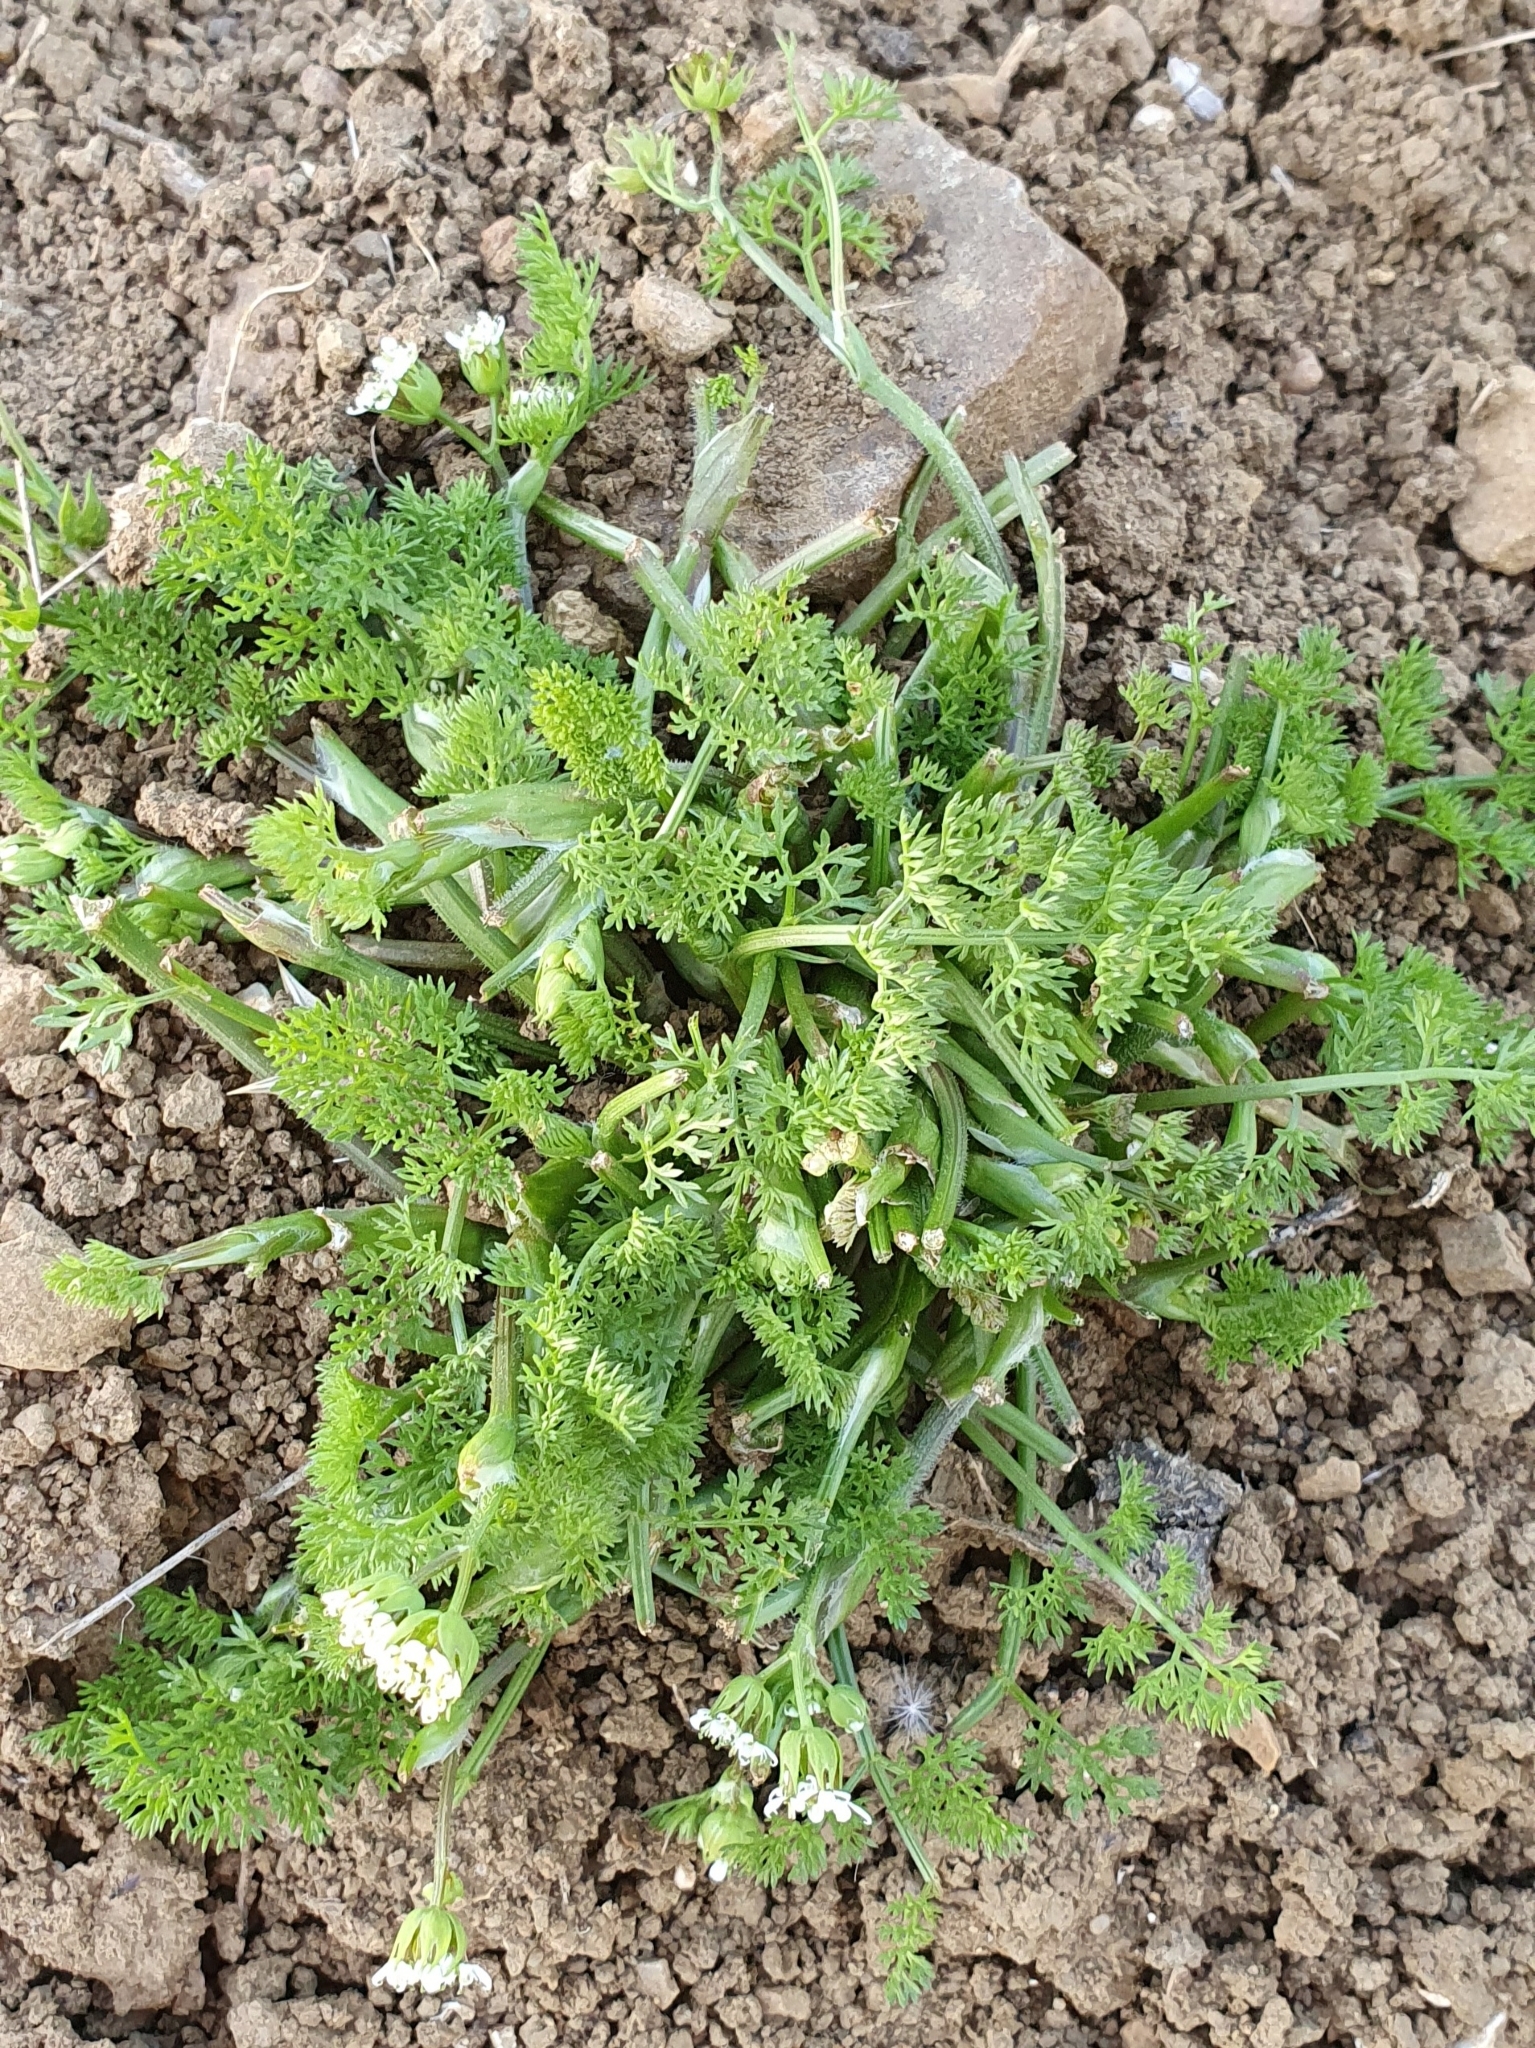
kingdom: Plantae
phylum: Tracheophyta
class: Magnoliopsida
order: Apiales
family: Apiaceae
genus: Scandix
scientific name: Scandix pecten-veneris
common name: Shepherd's-needle
